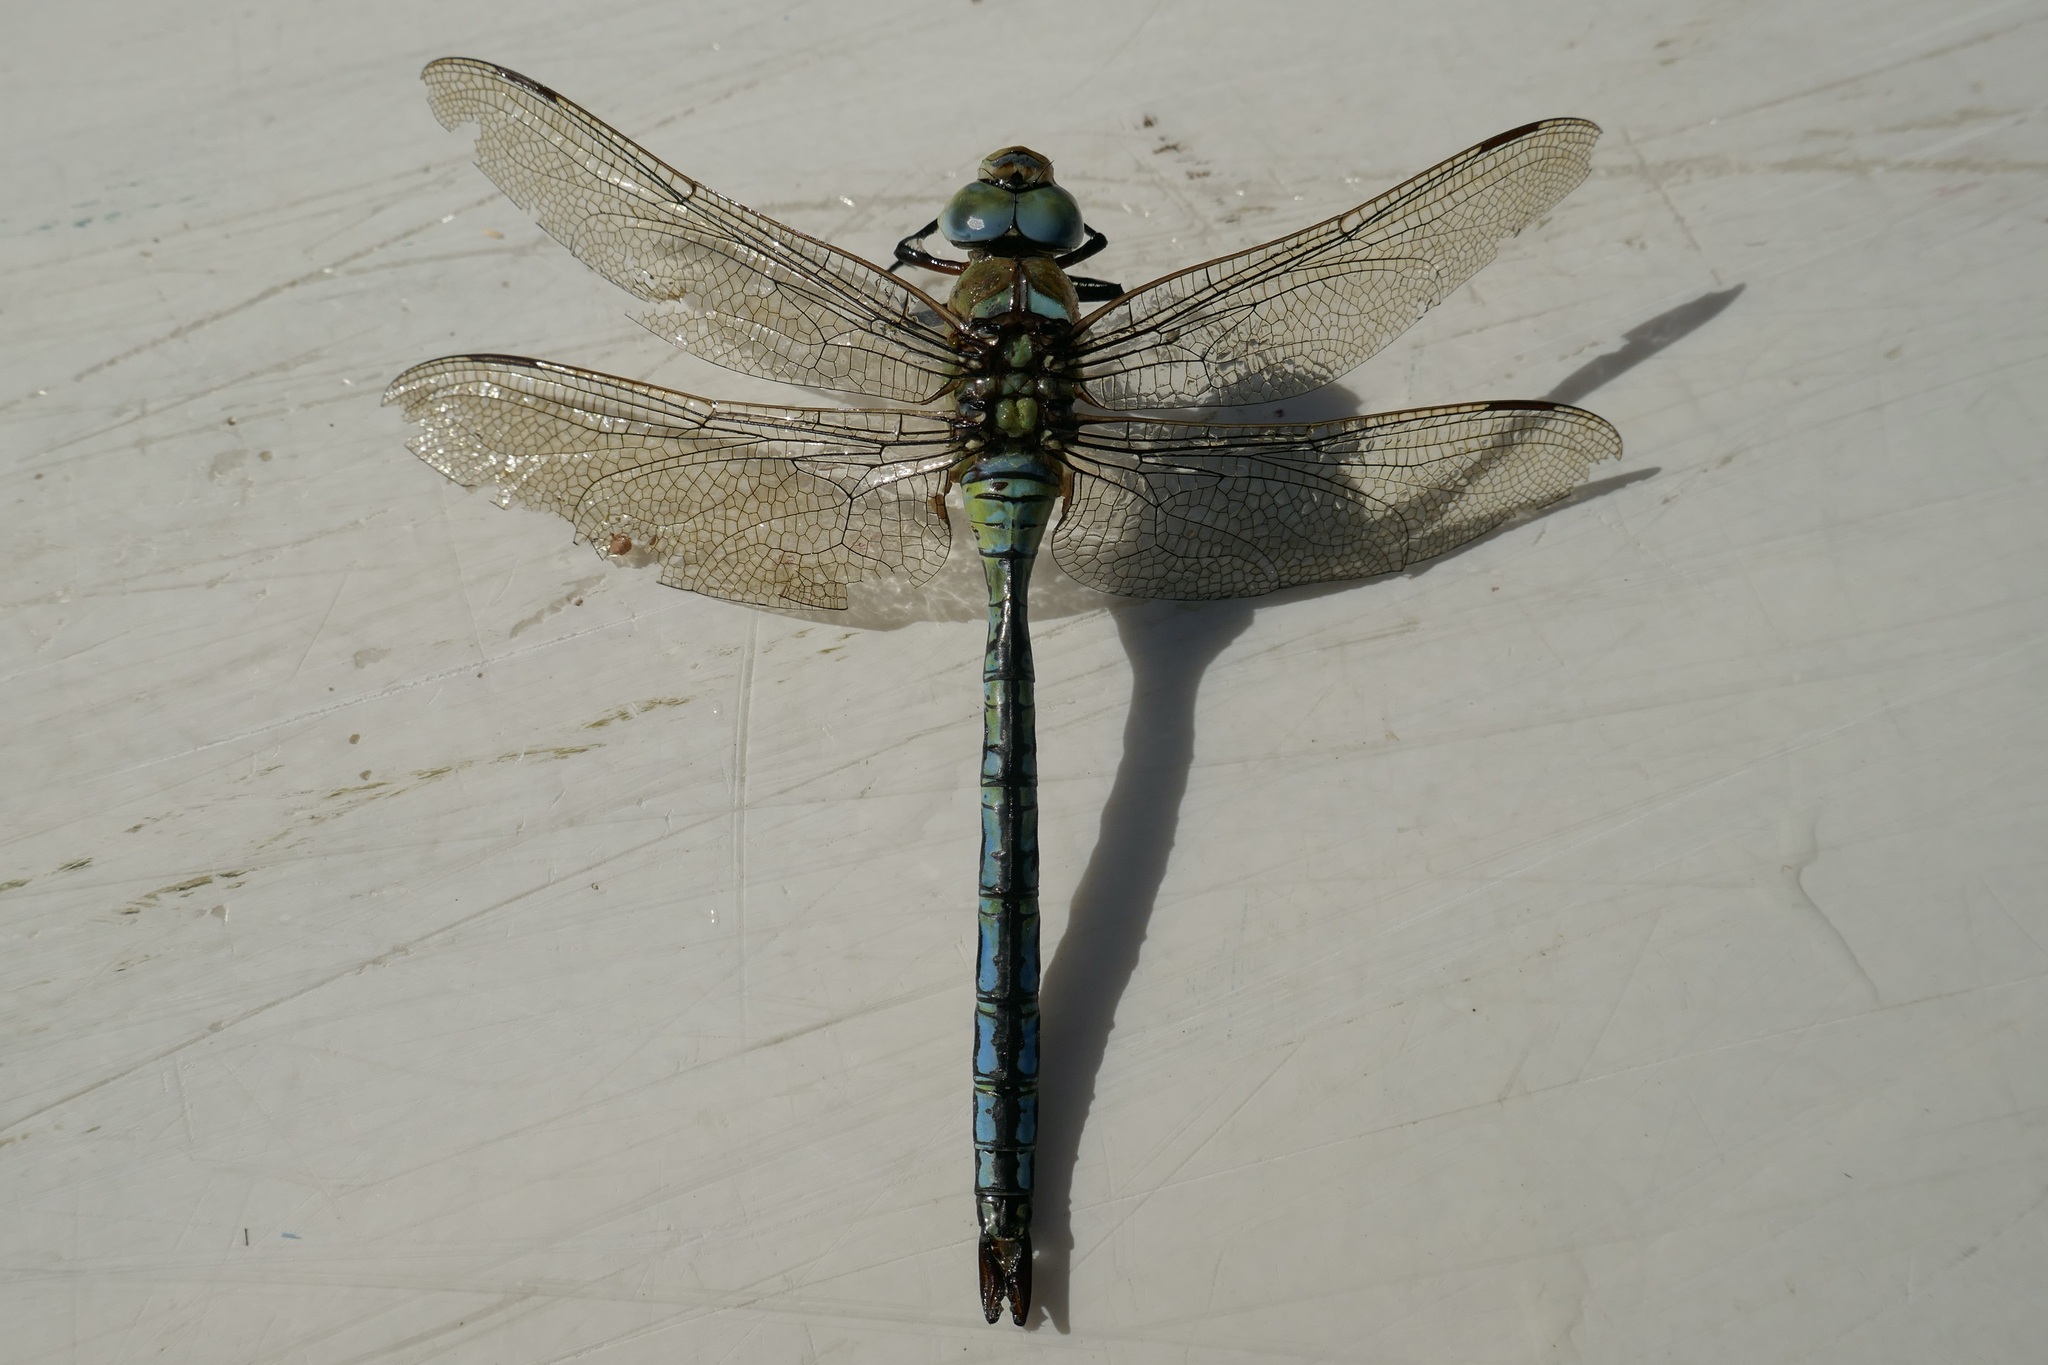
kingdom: Animalia
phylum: Arthropoda
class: Insecta
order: Odonata
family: Aeshnidae
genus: Anax
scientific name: Anax imperator
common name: Emperor dragonfly
